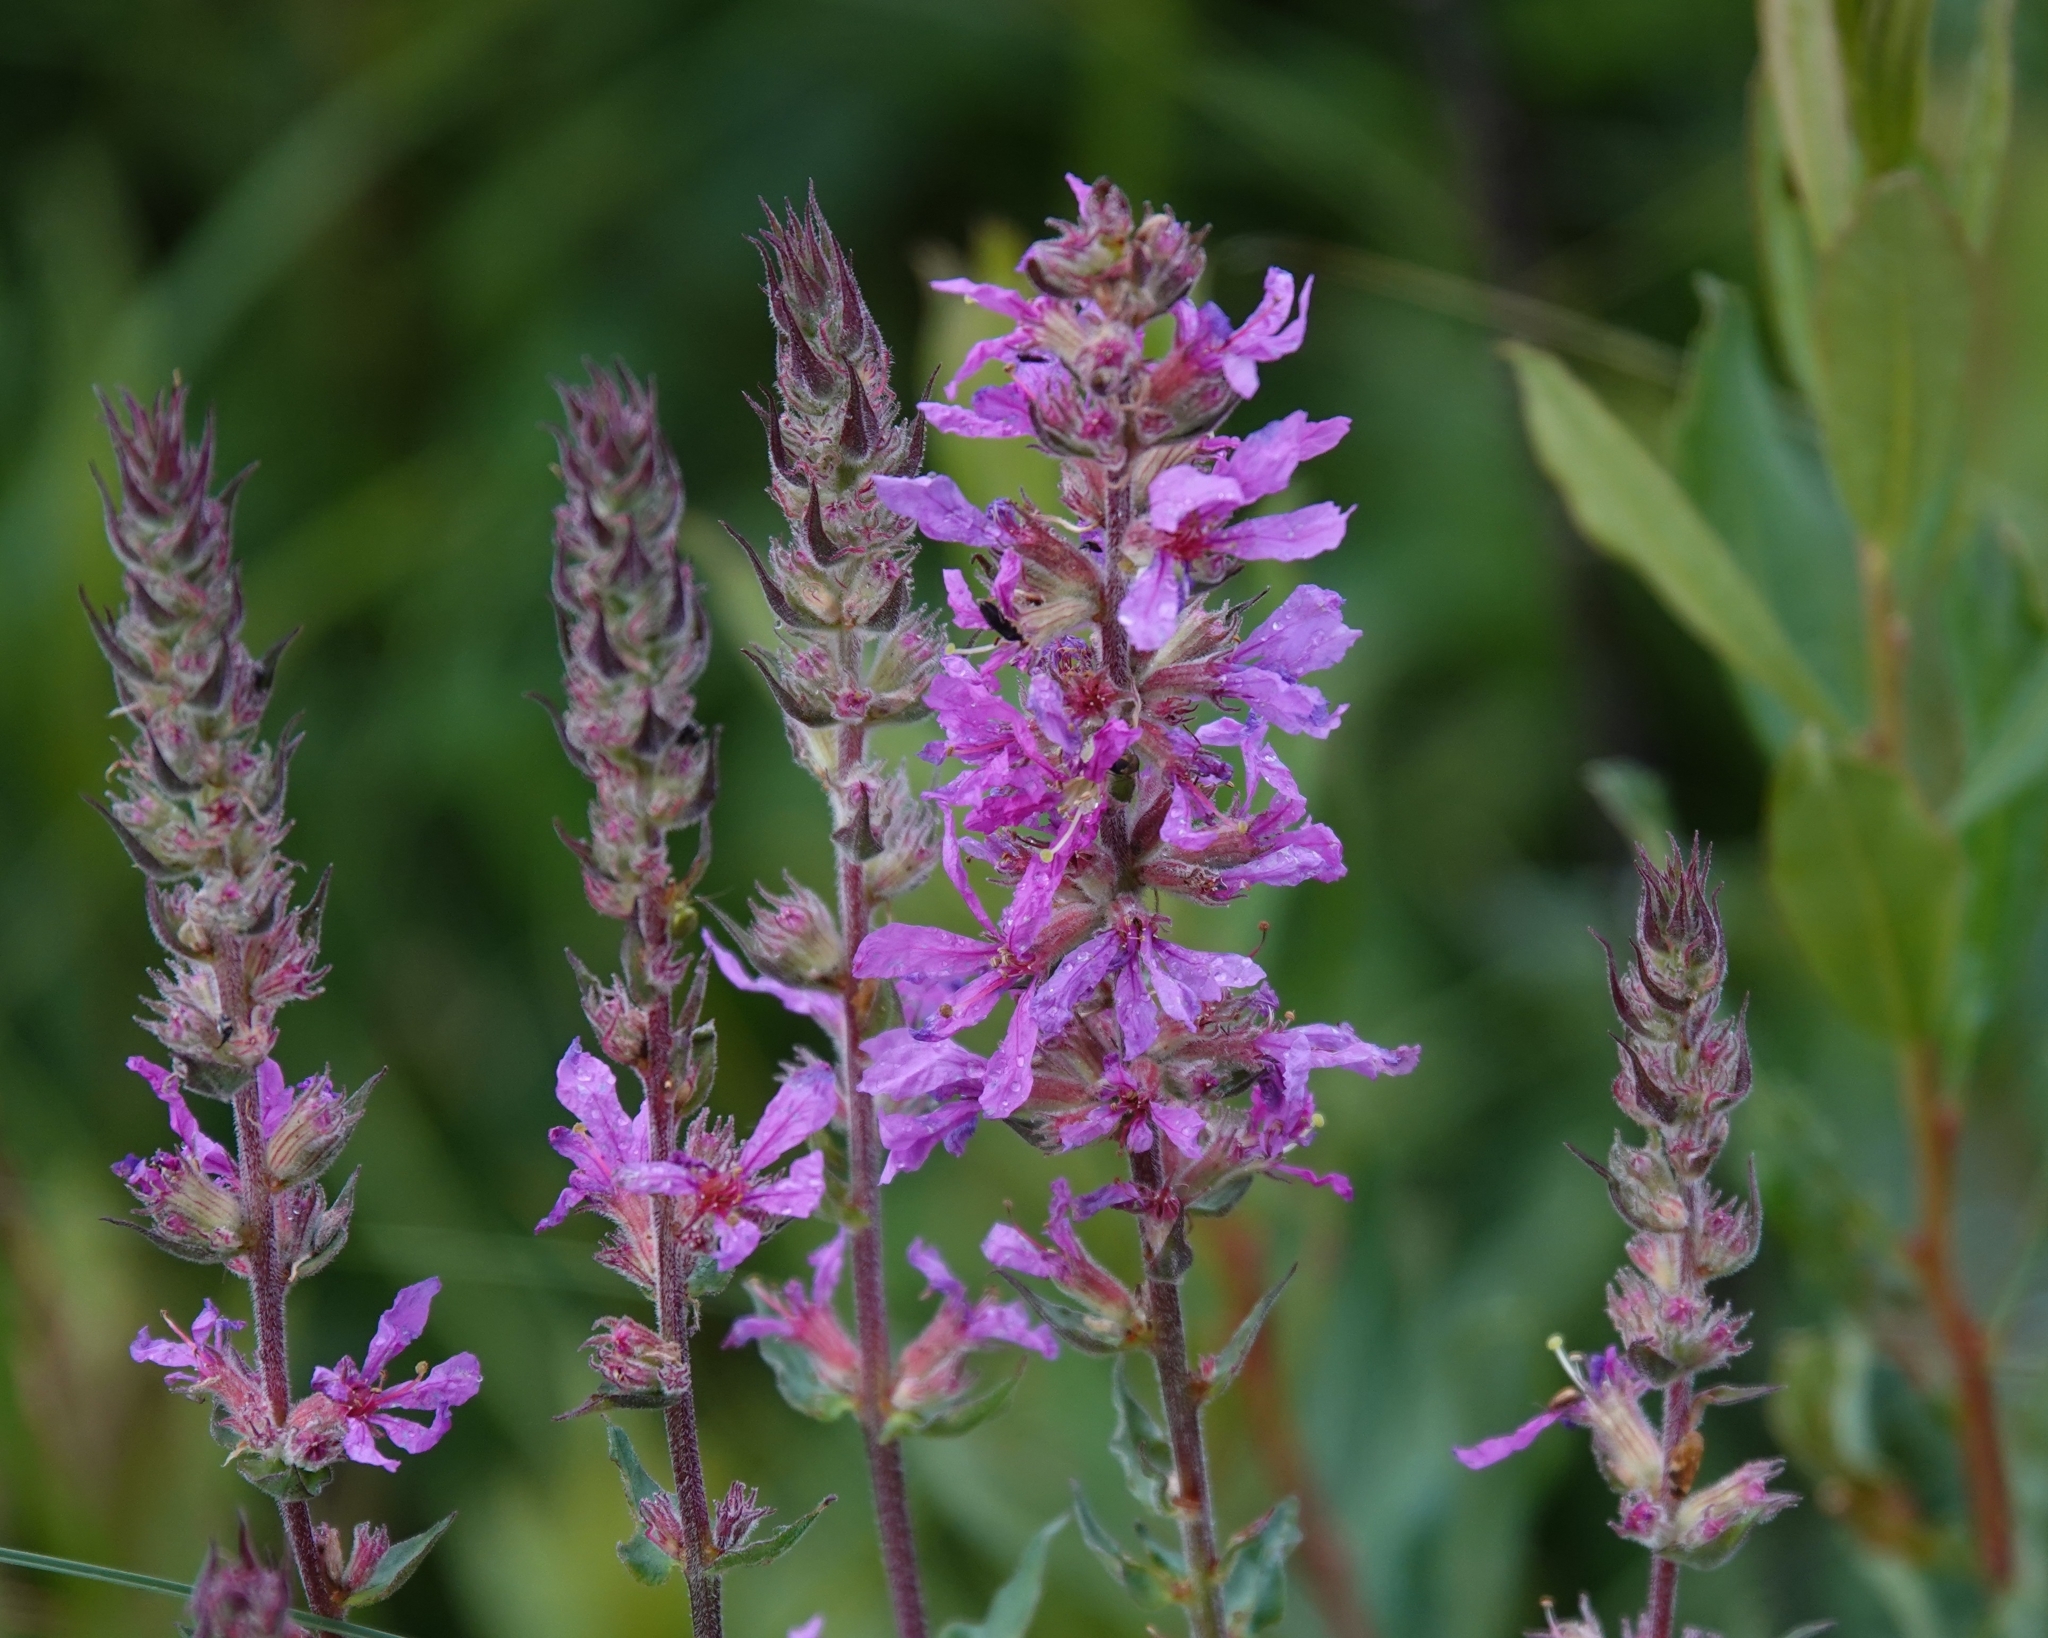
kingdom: Plantae
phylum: Tracheophyta
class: Magnoliopsida
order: Myrtales
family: Lythraceae
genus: Lythrum
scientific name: Lythrum salicaria
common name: Purple loosestrife
